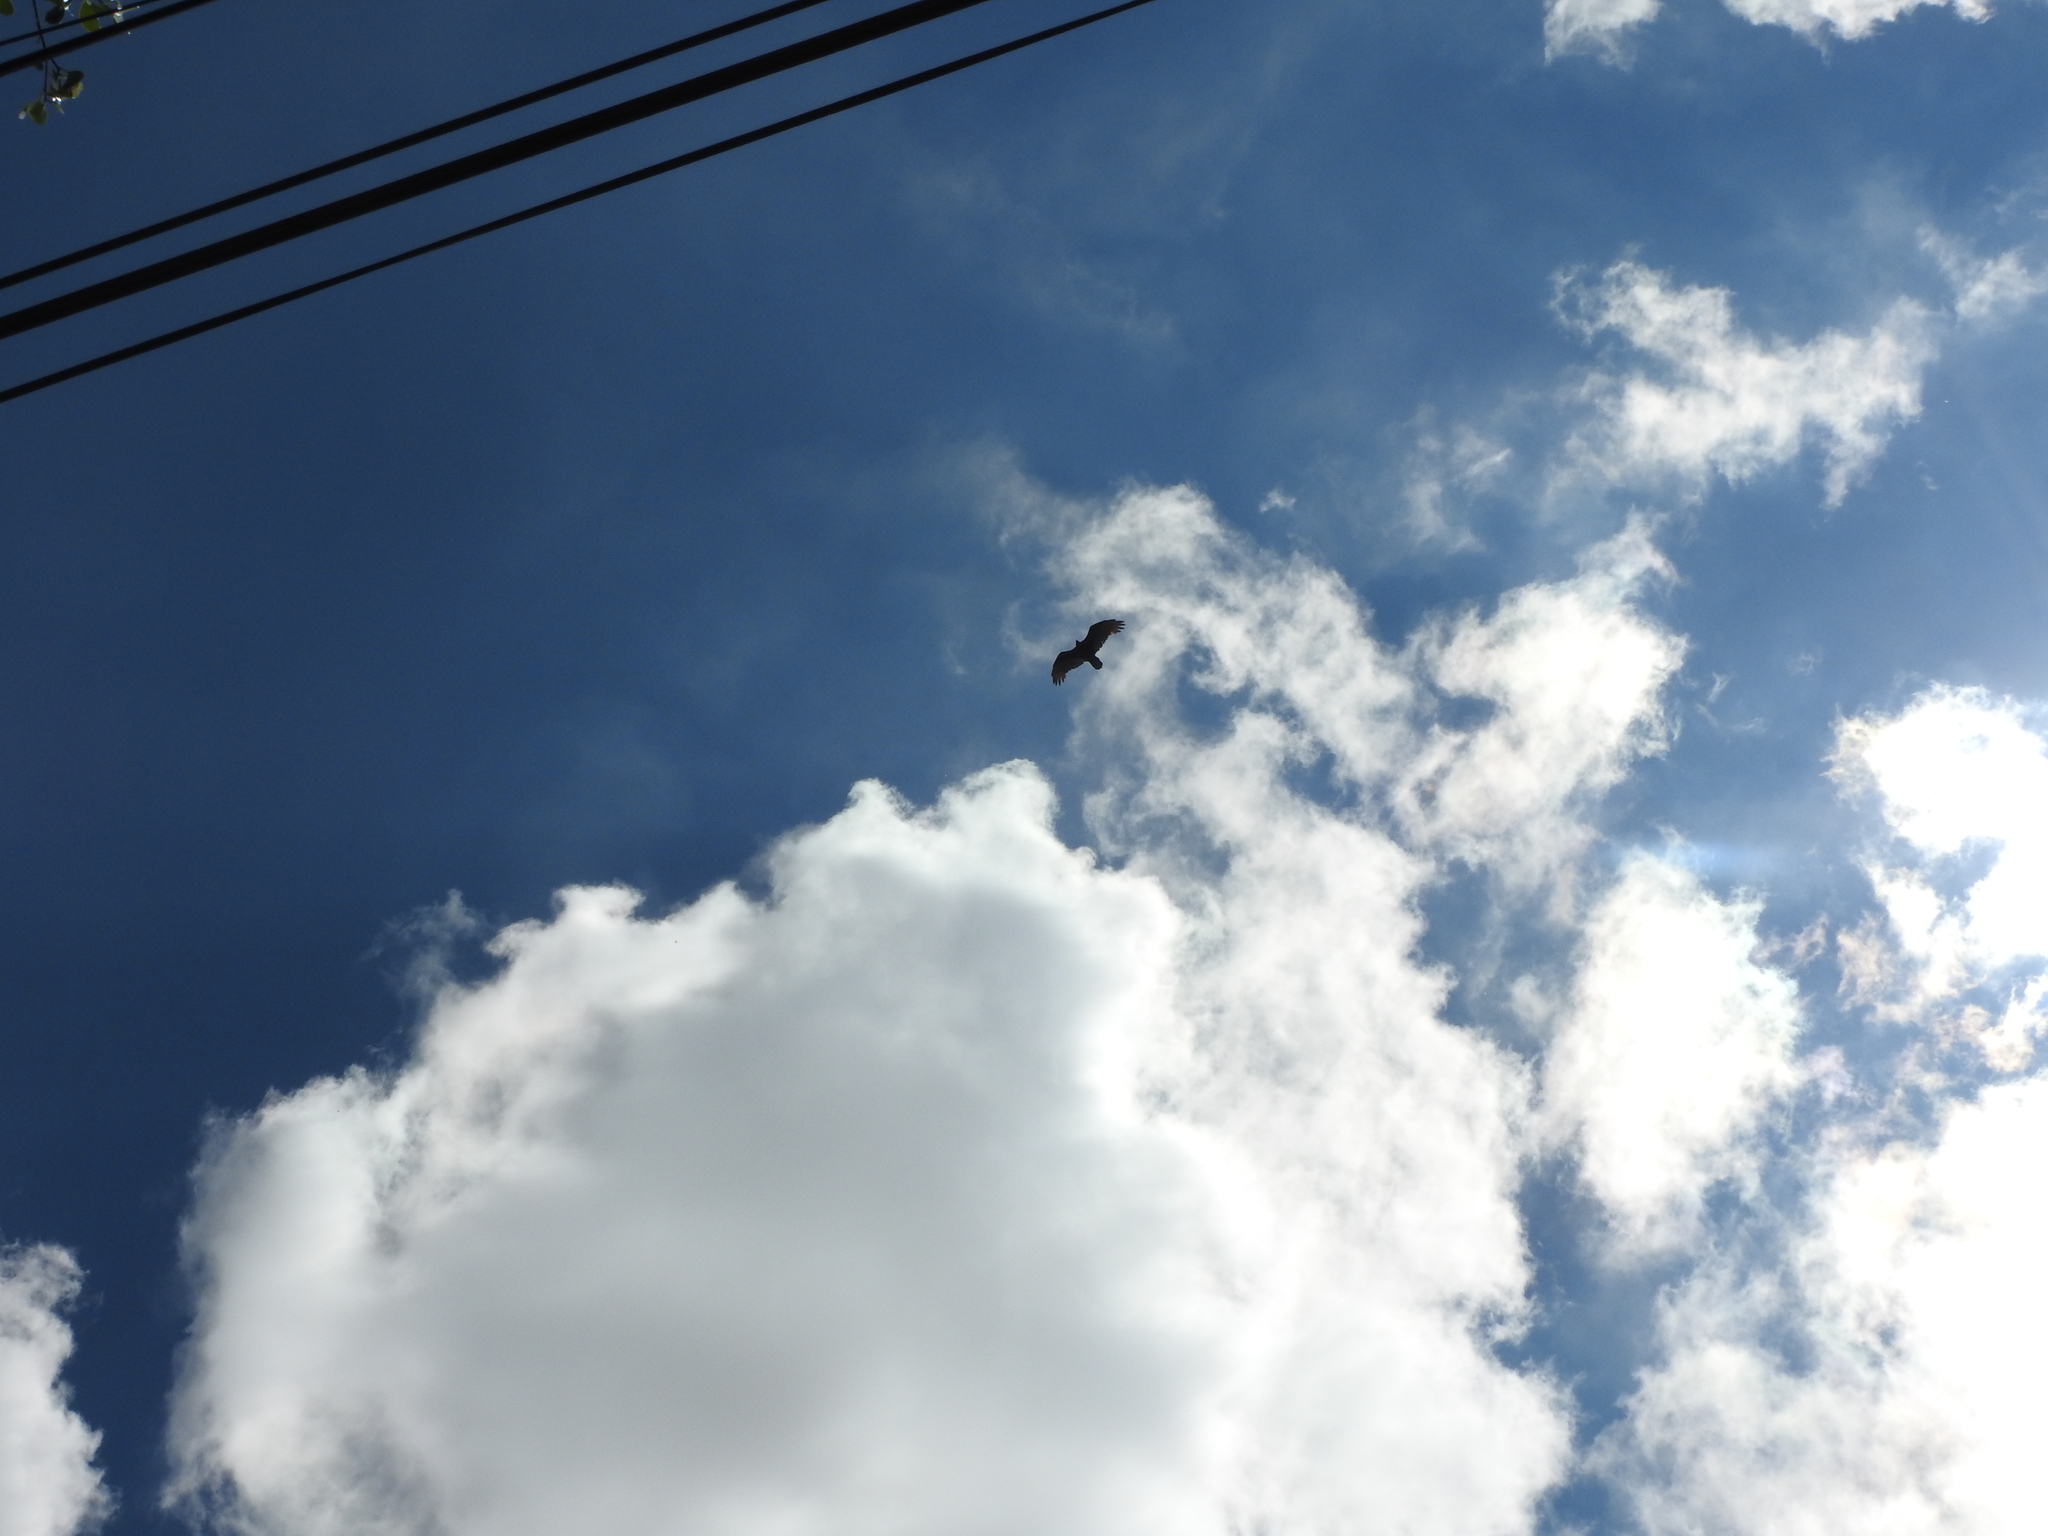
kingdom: Animalia
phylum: Chordata
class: Aves
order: Accipitriformes
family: Cathartidae
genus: Cathartes
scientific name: Cathartes aura
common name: Turkey vulture
